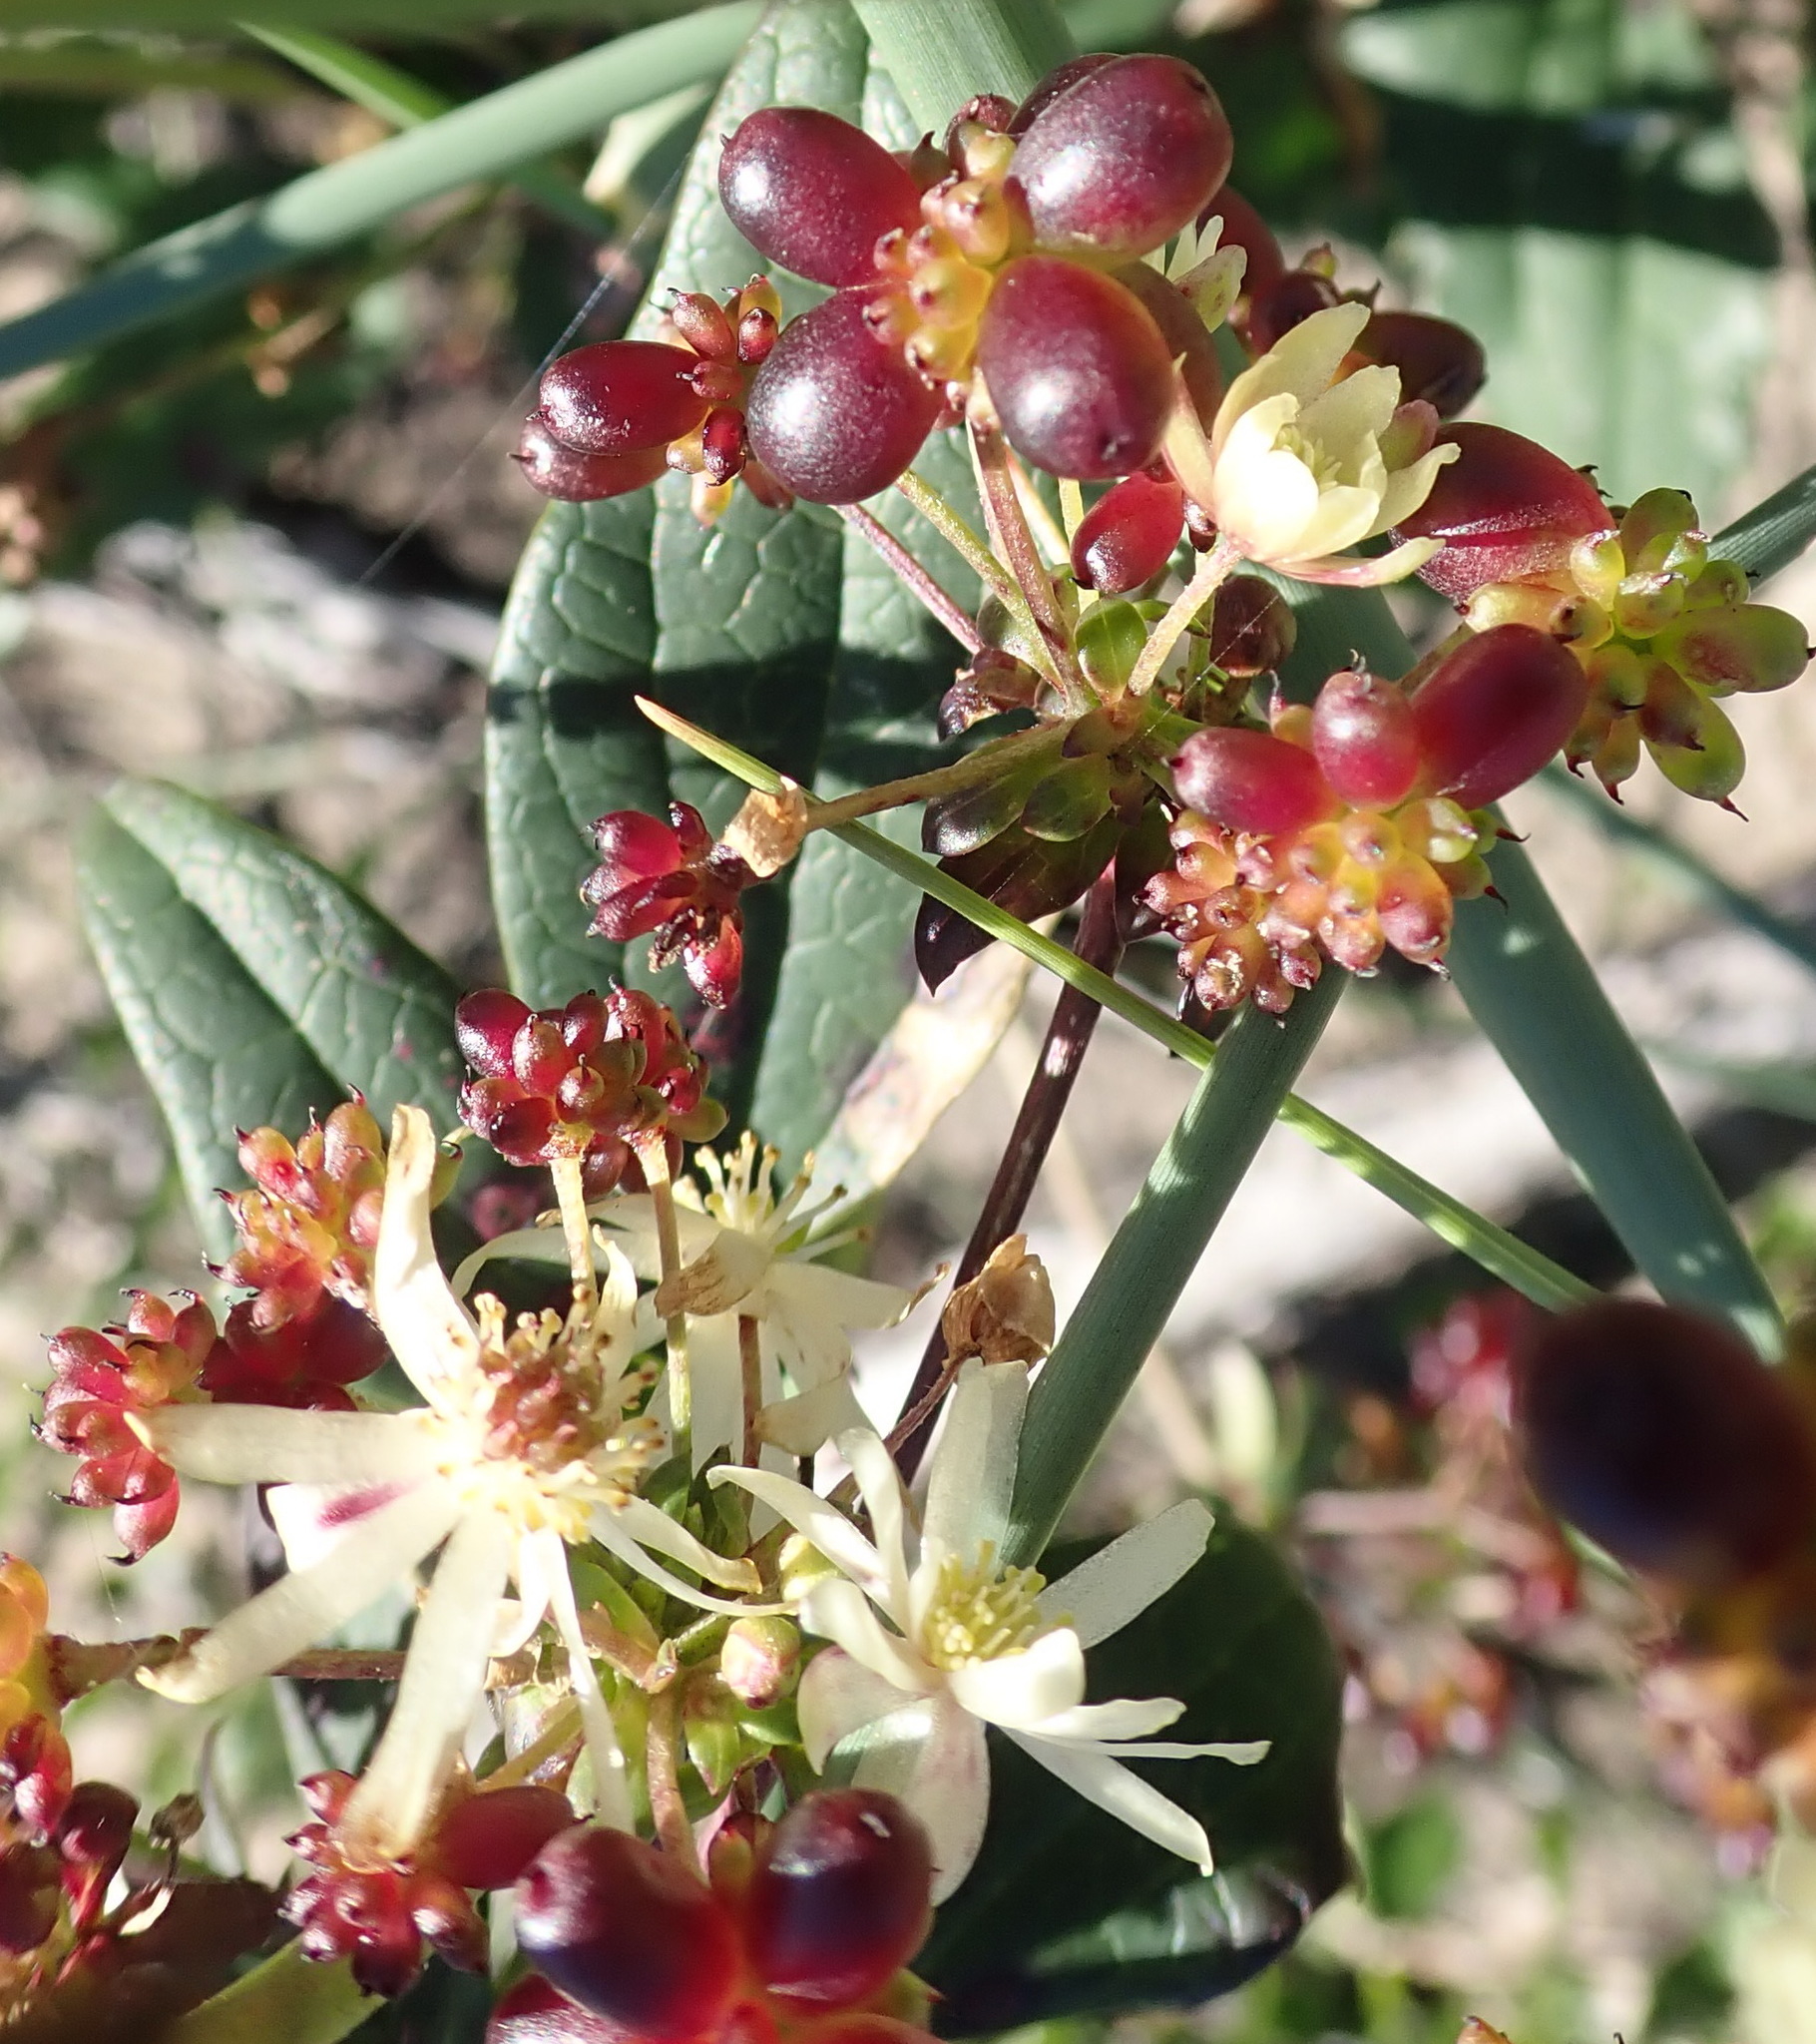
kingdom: Plantae
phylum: Tracheophyta
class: Magnoliopsida
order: Ranunculales
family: Ranunculaceae
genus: Knowltonia
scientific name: Knowltonia vesicatoria
